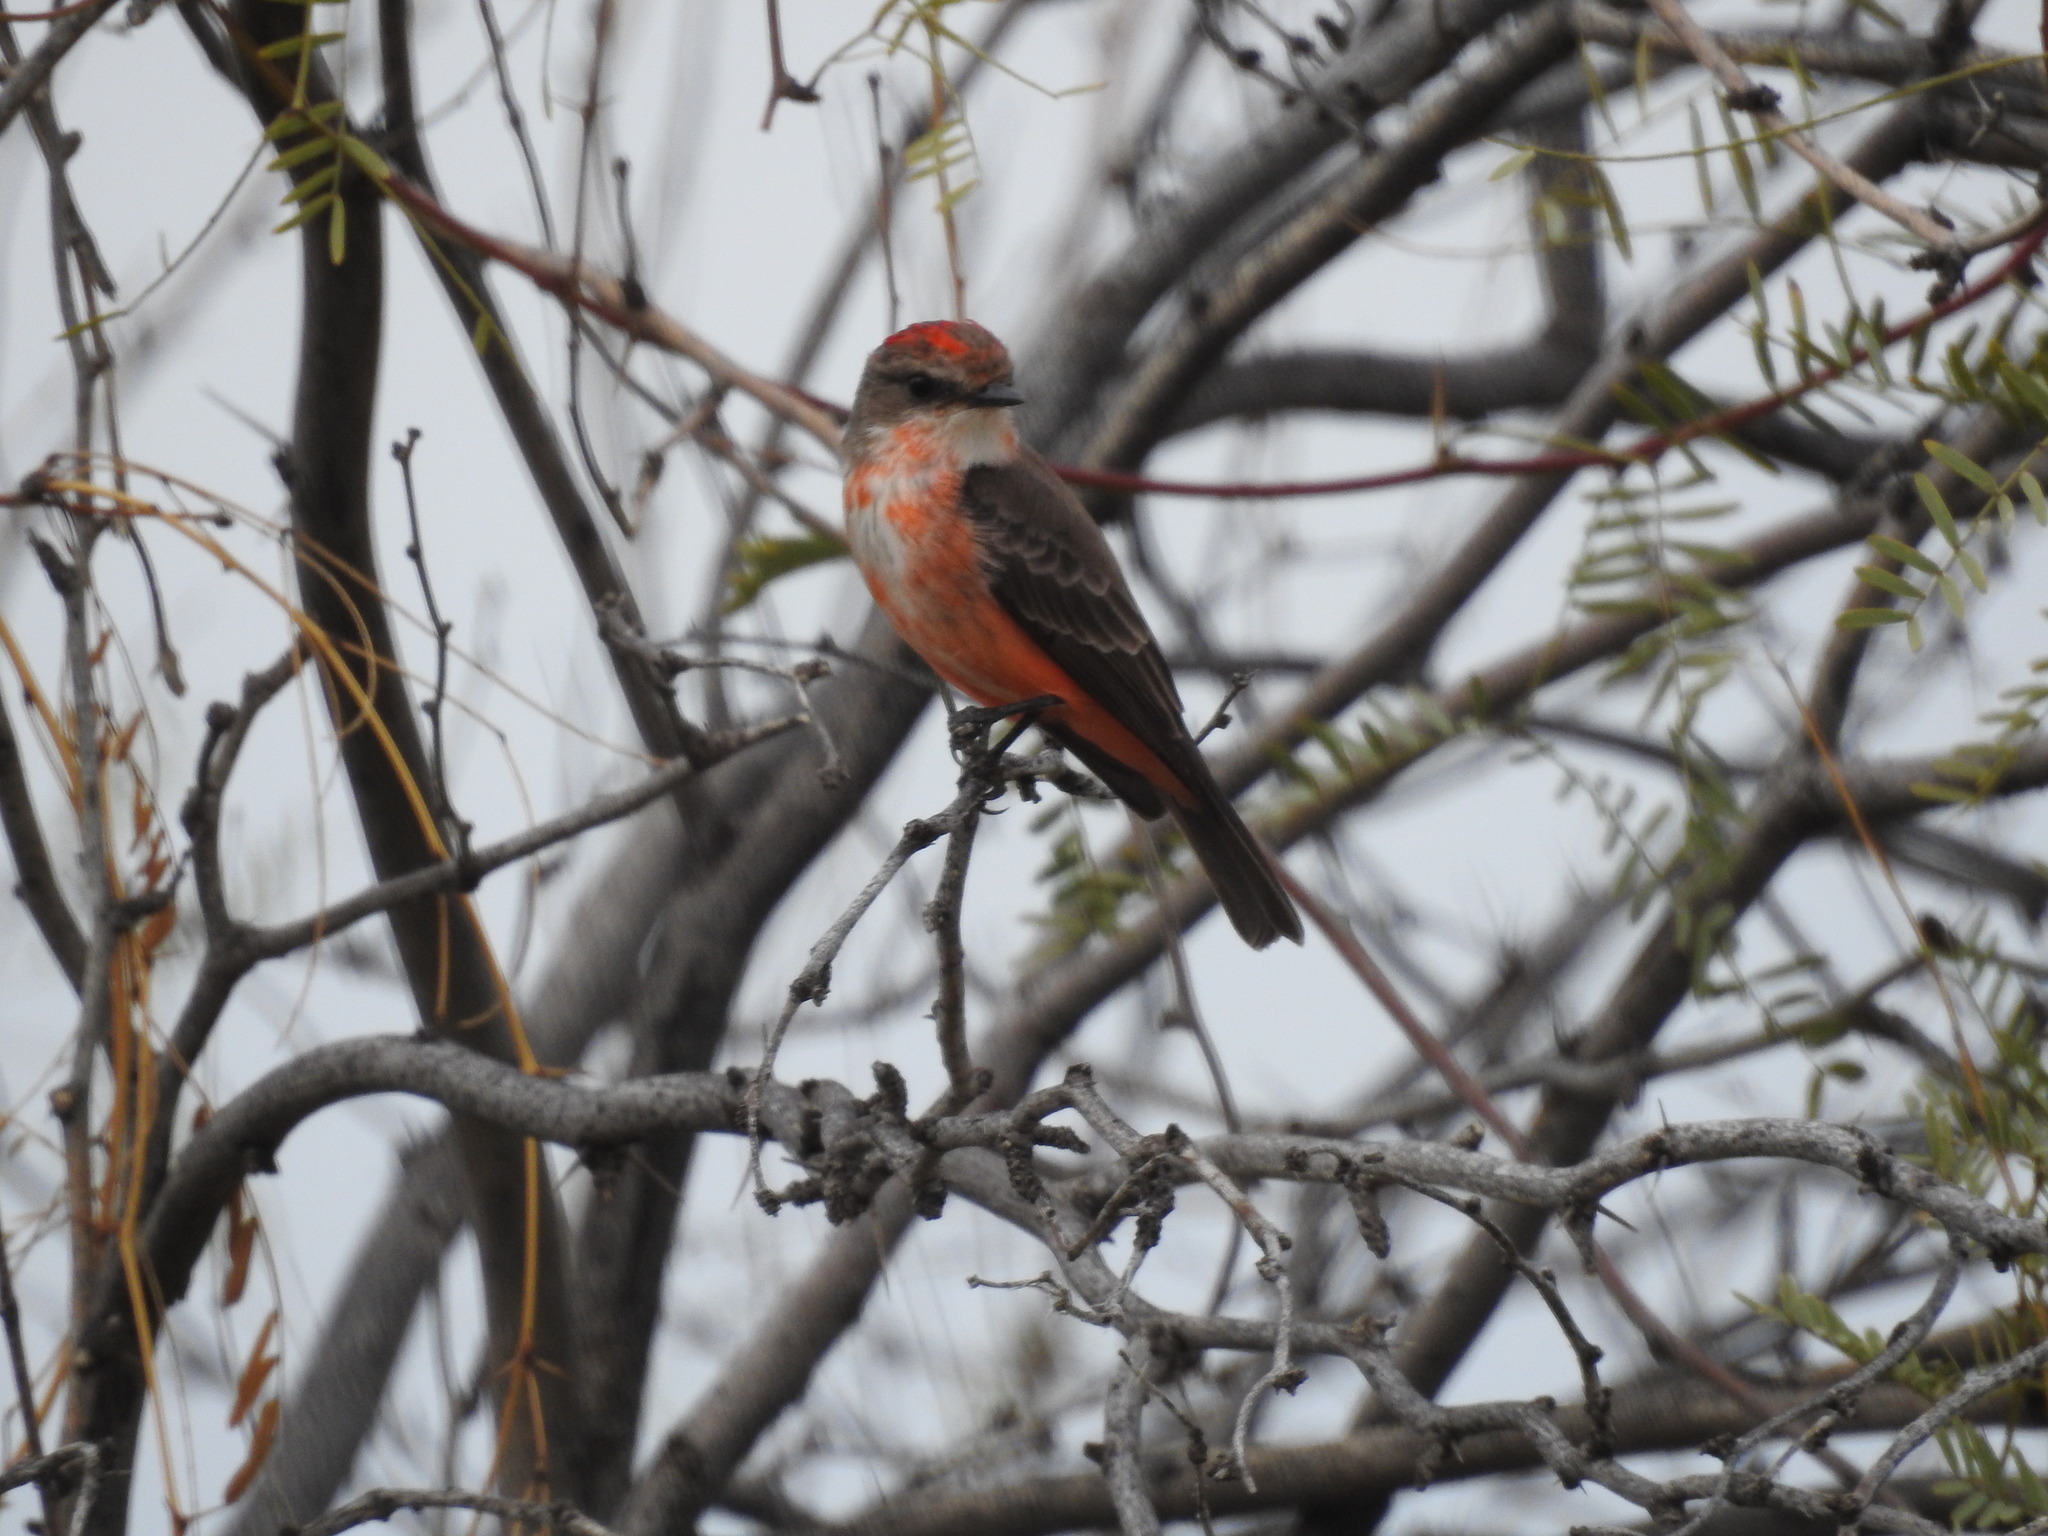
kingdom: Animalia
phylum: Chordata
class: Aves
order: Passeriformes
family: Tyrannidae
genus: Pyrocephalus
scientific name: Pyrocephalus rubinus
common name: Vermilion flycatcher
